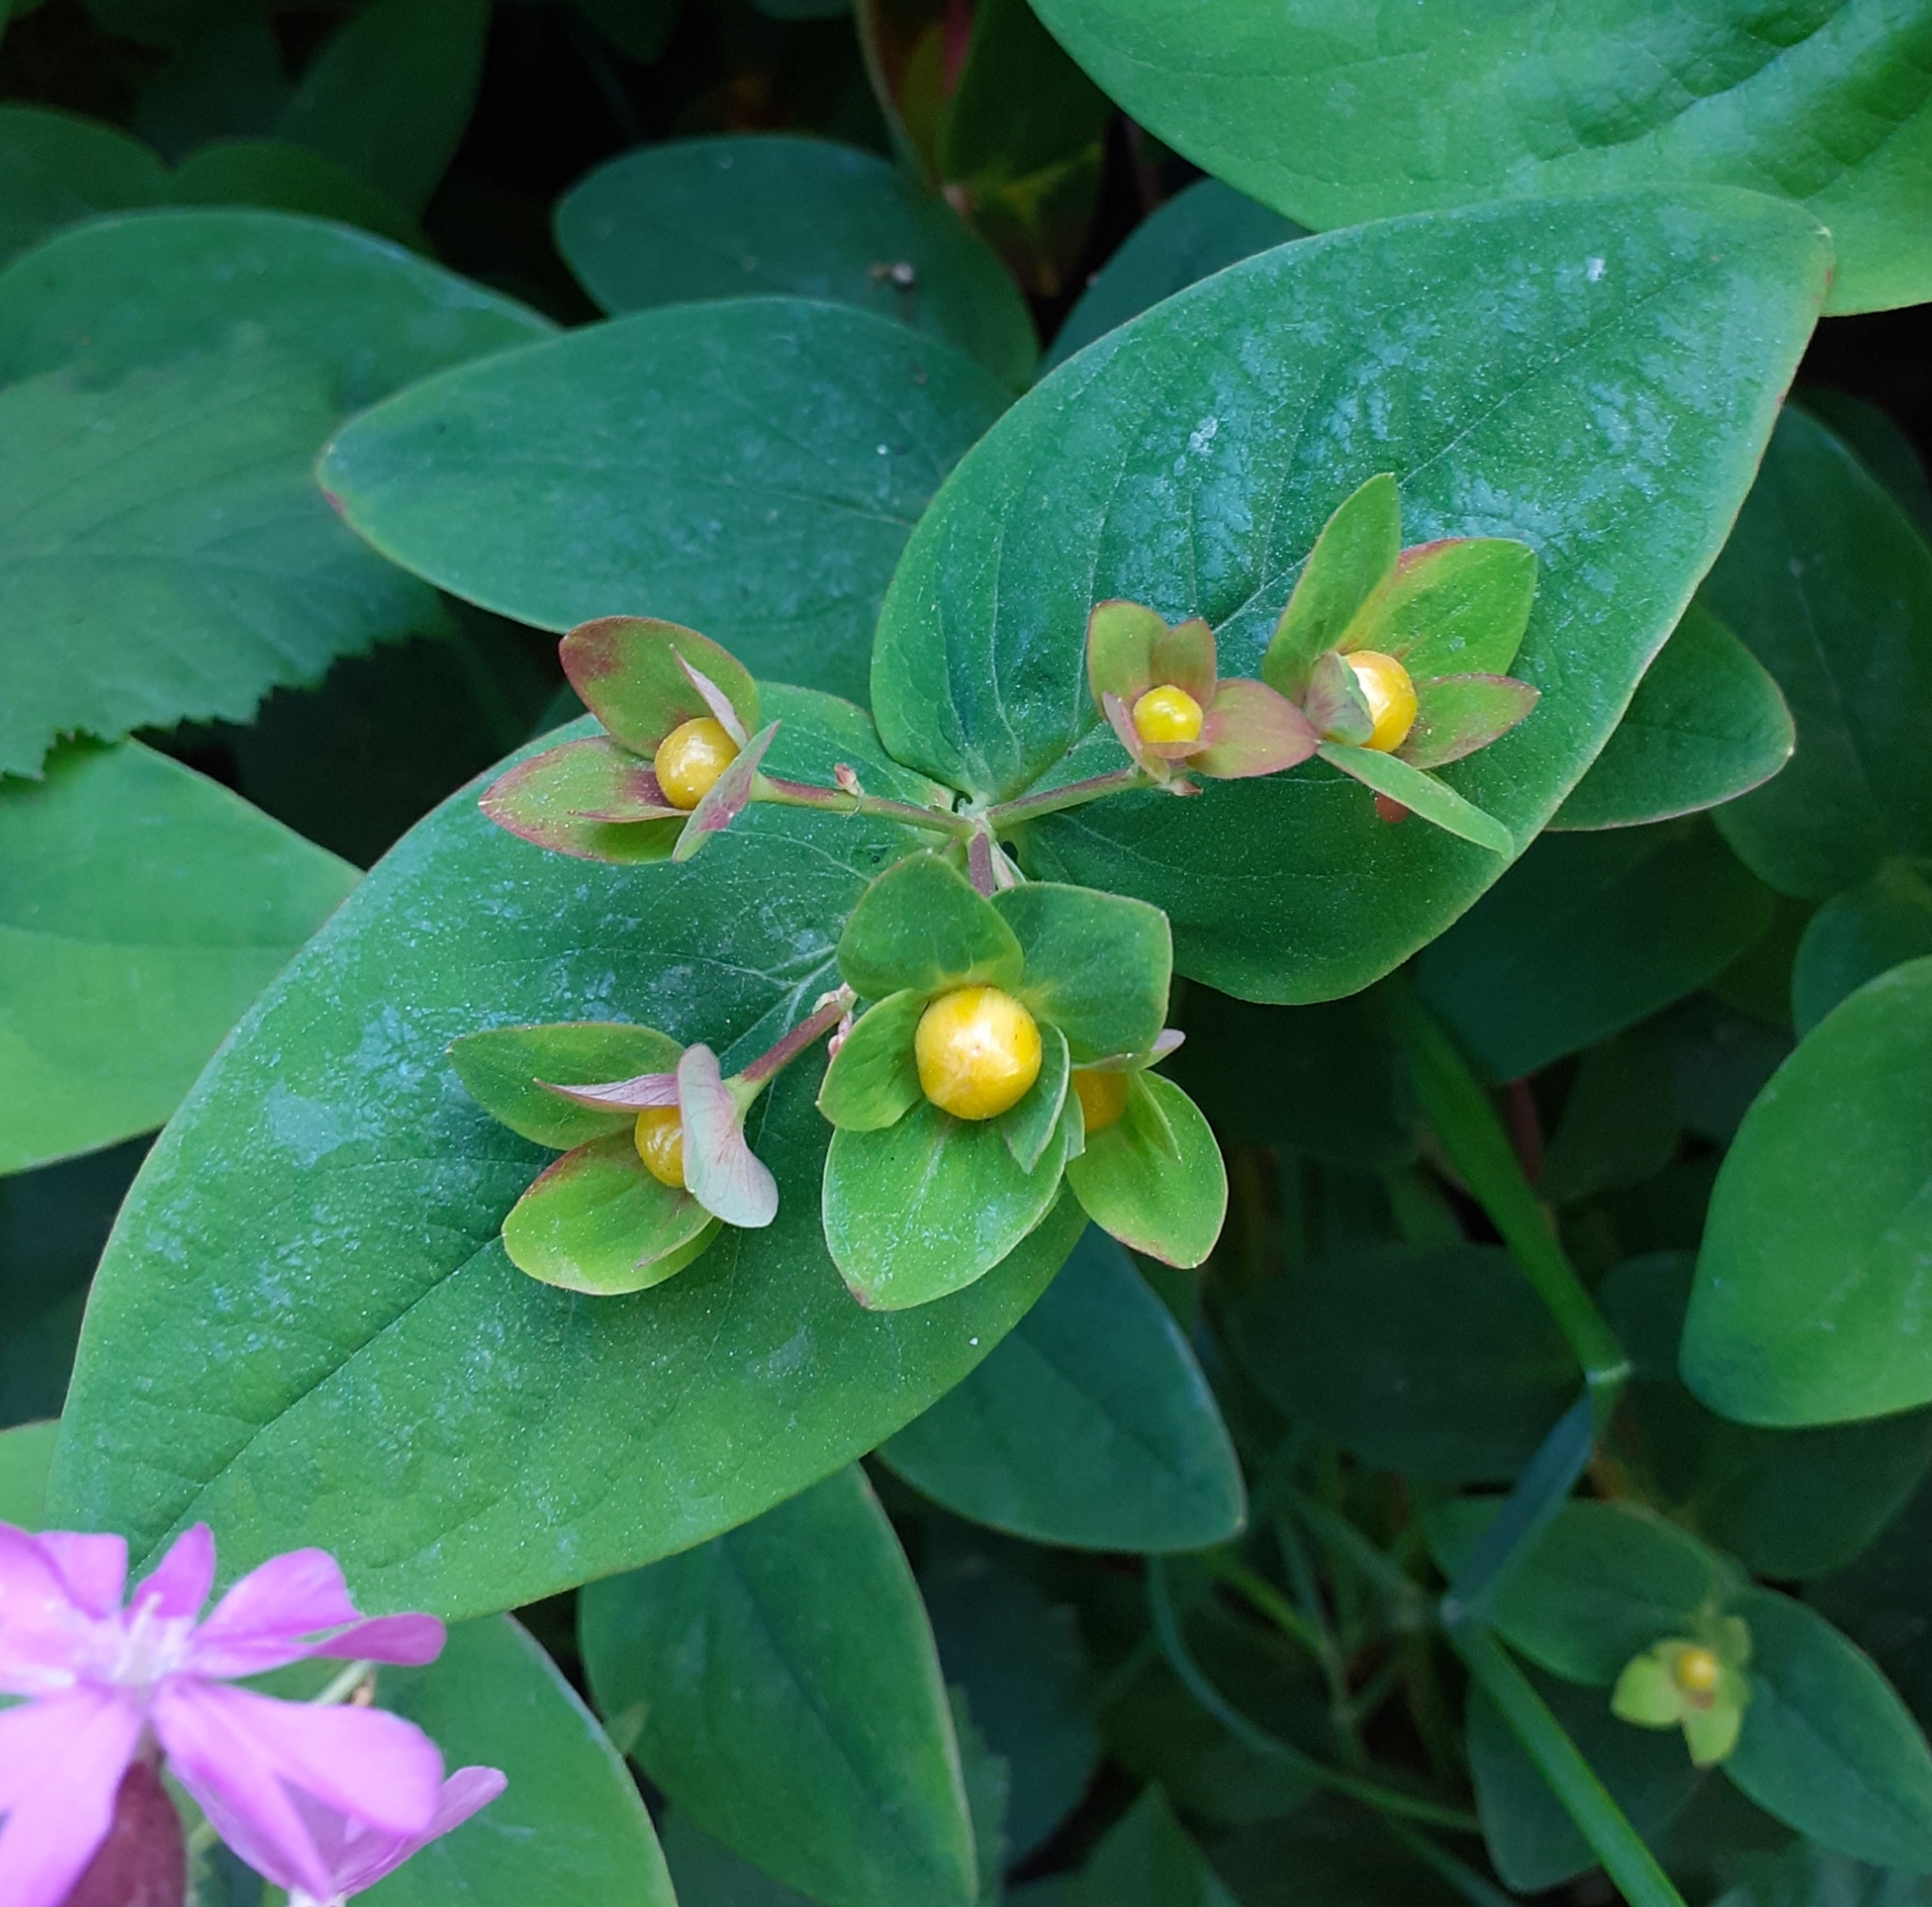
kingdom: Plantae
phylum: Tracheophyta
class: Magnoliopsida
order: Malpighiales
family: Hypericaceae
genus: Hypericum
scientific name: Hypericum androsaemum
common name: Sweet-amber
